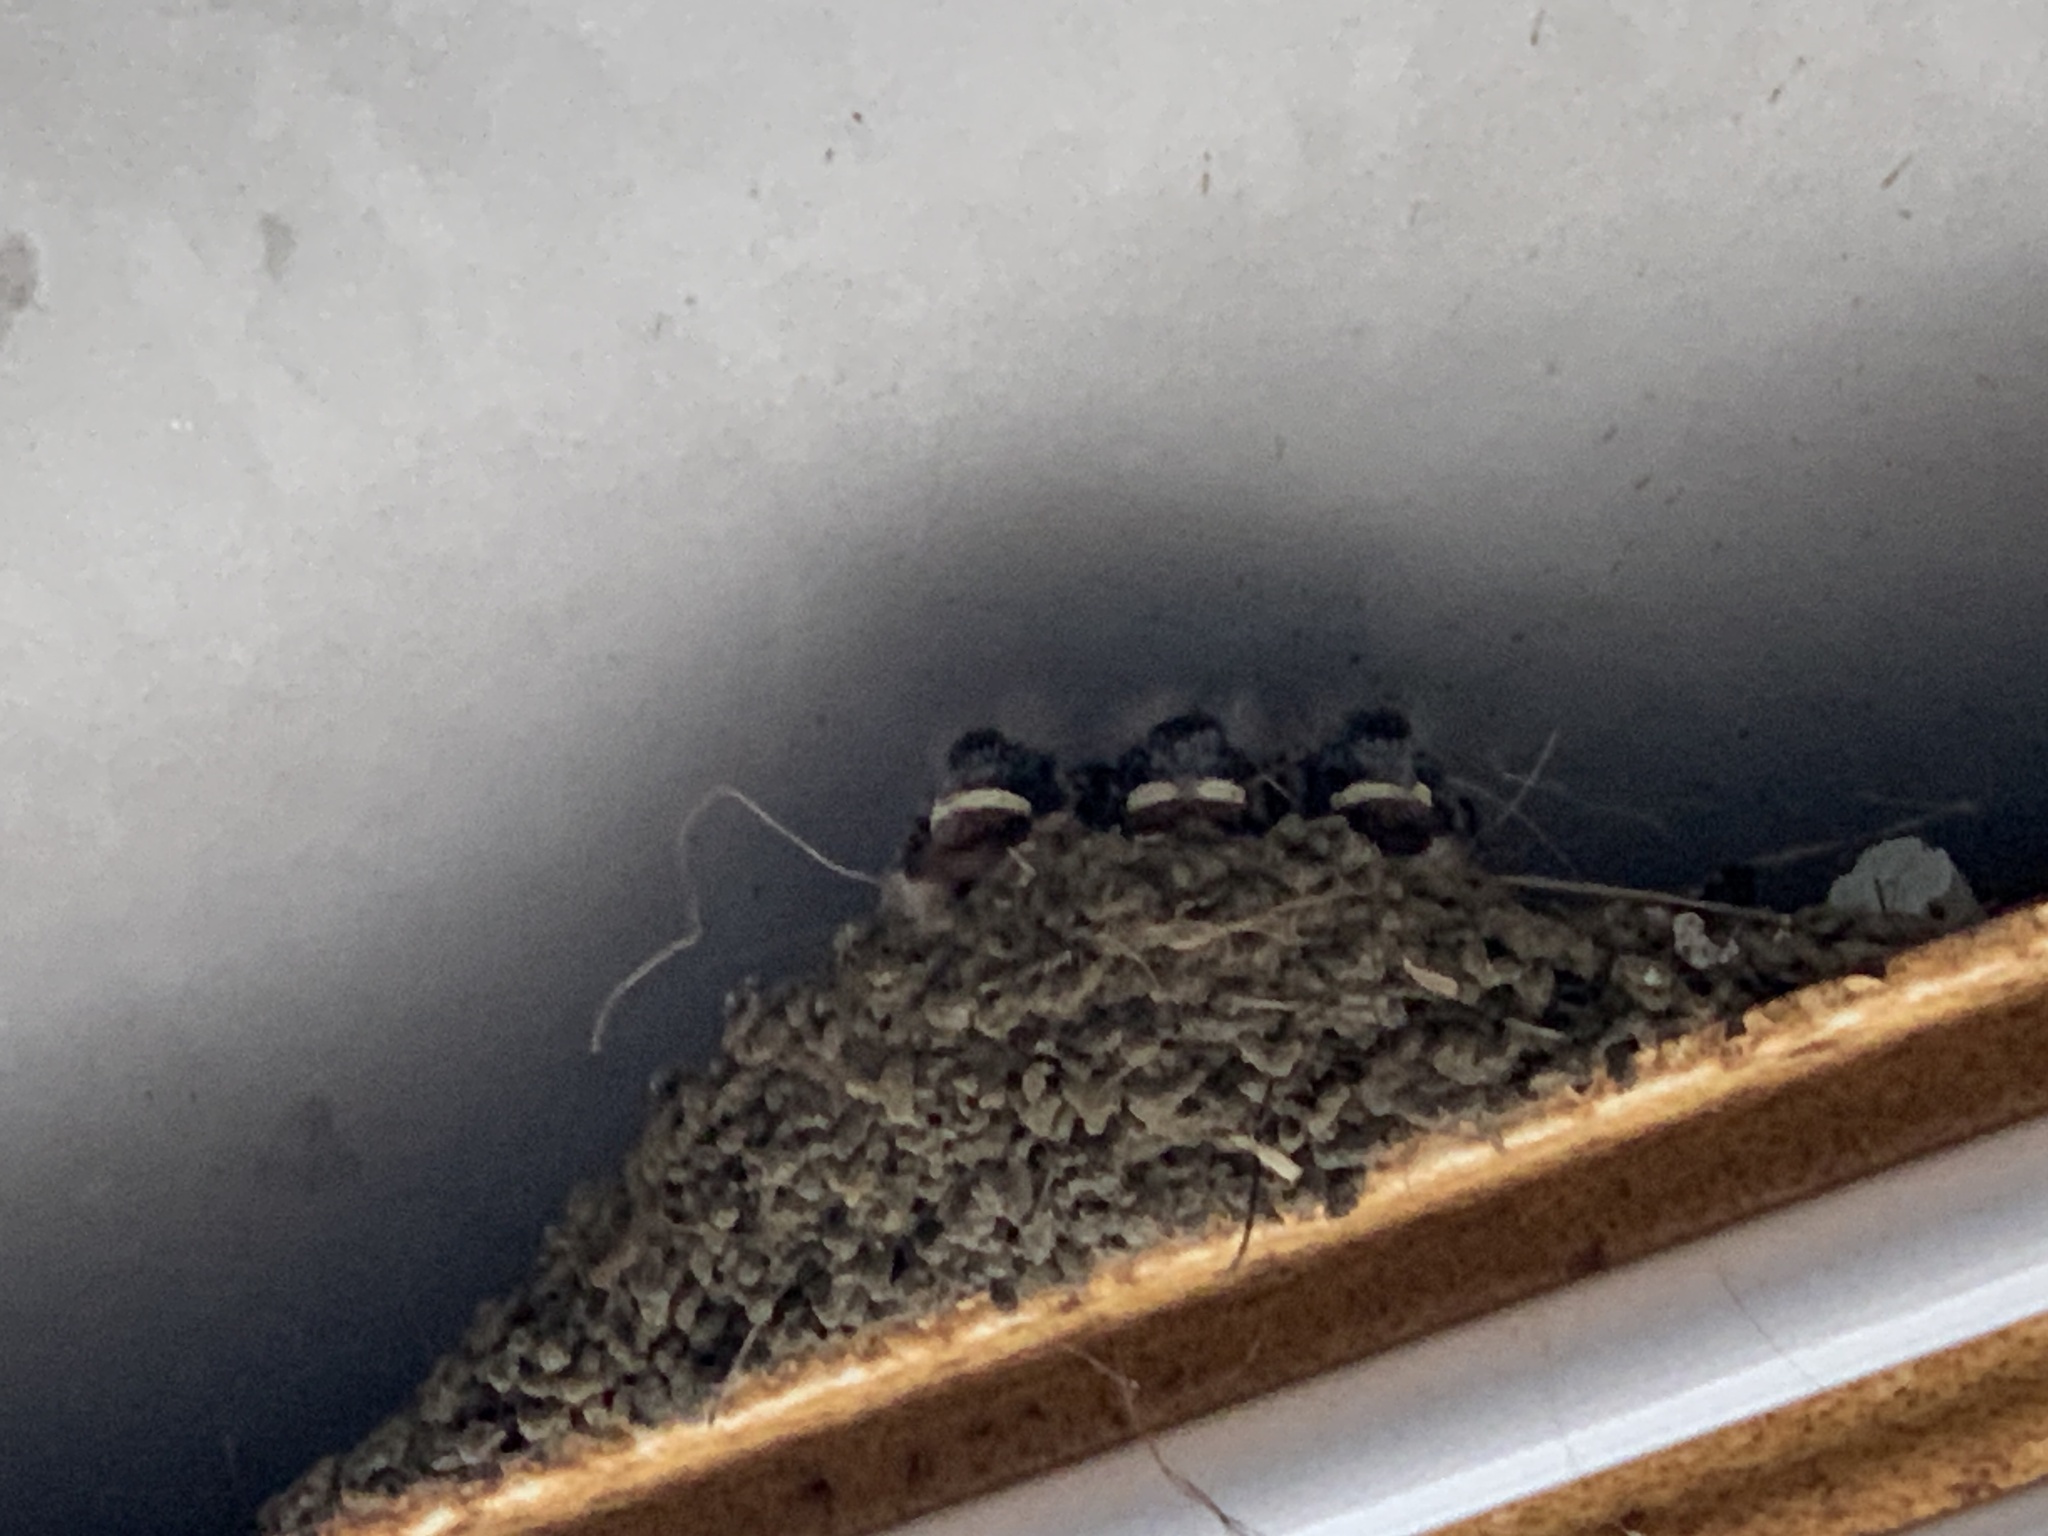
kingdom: Animalia
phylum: Chordata
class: Aves
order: Passeriformes
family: Hirundinidae
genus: Hirundo
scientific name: Hirundo rustica
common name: Barn swallow
